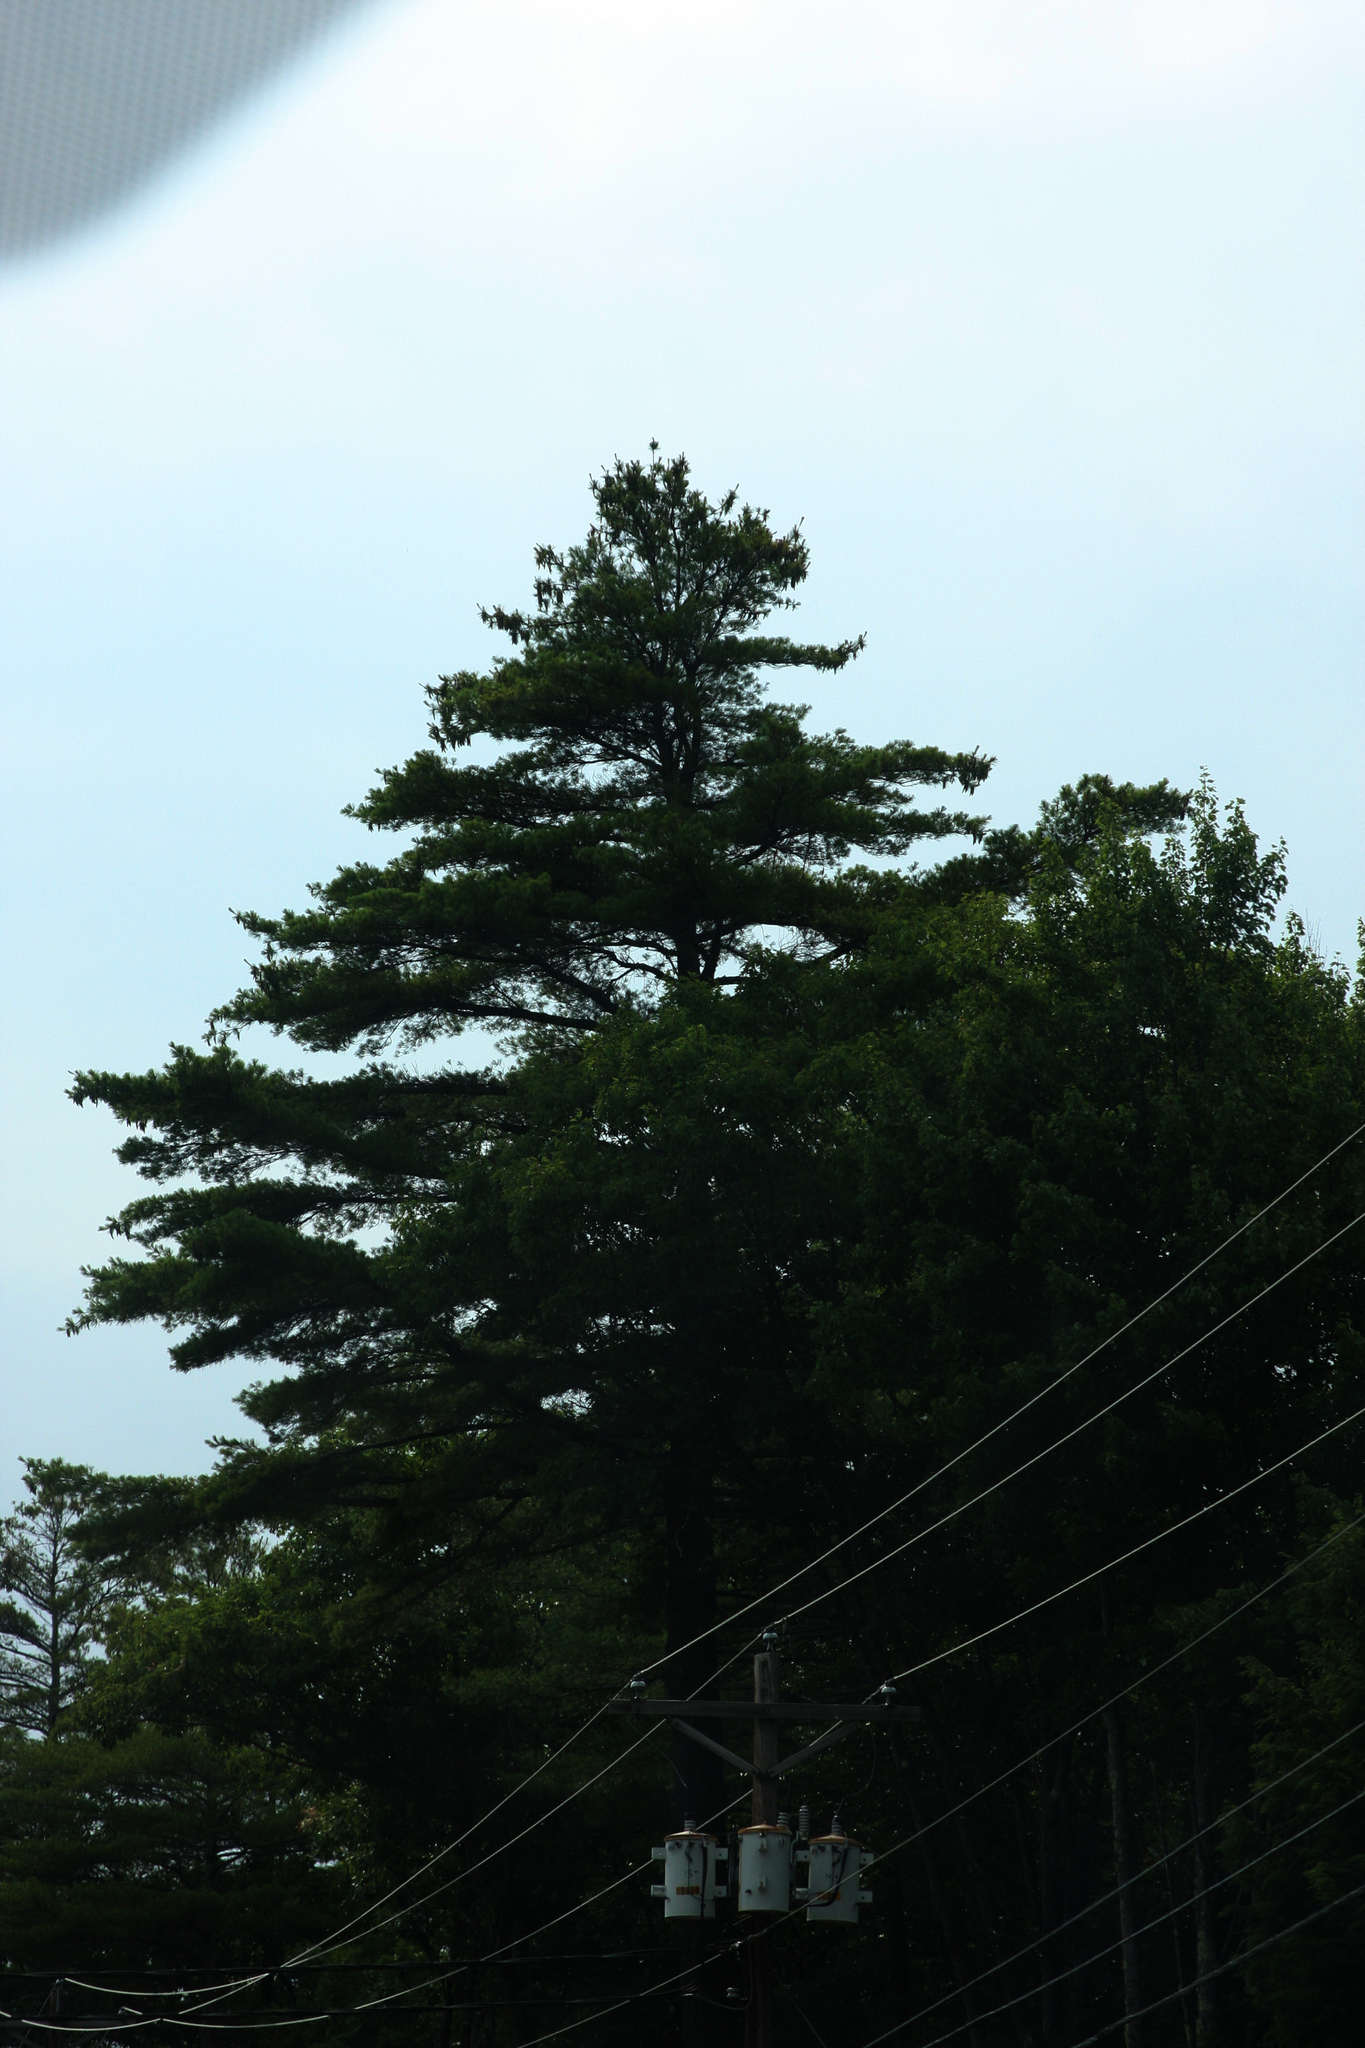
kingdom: Plantae
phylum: Tracheophyta
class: Pinopsida
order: Pinales
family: Pinaceae
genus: Pinus
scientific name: Pinus strobus
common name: Weymouth pine
